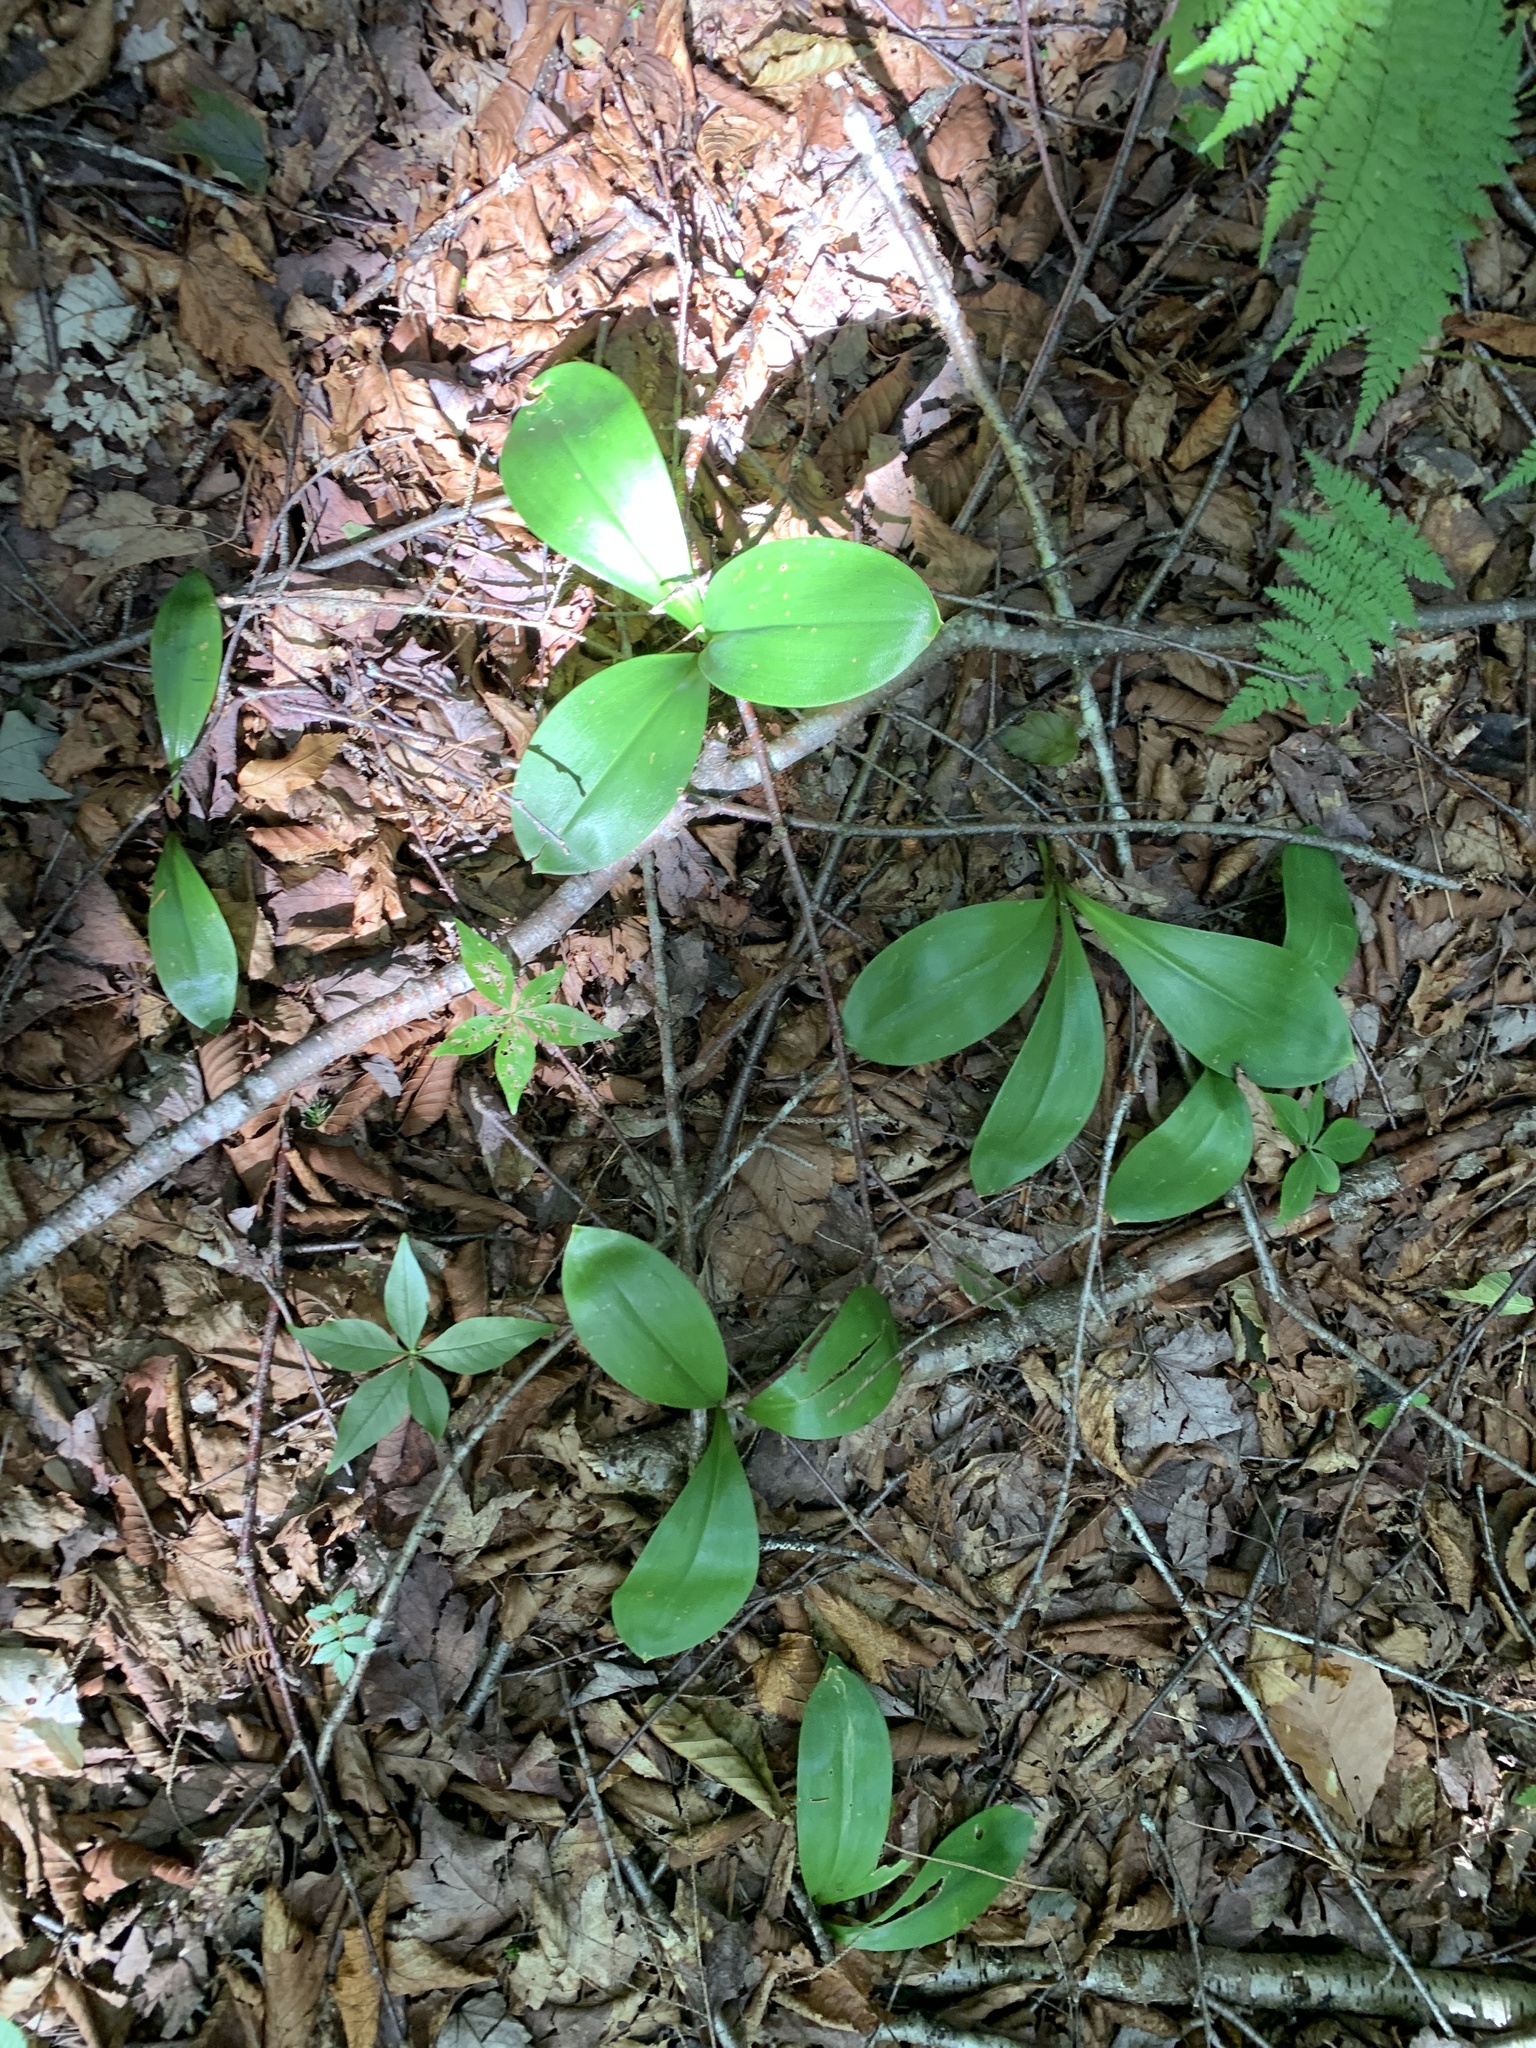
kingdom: Plantae
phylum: Tracheophyta
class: Liliopsida
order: Liliales
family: Liliaceae
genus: Clintonia
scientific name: Clintonia borealis
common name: Yellow clintonia
